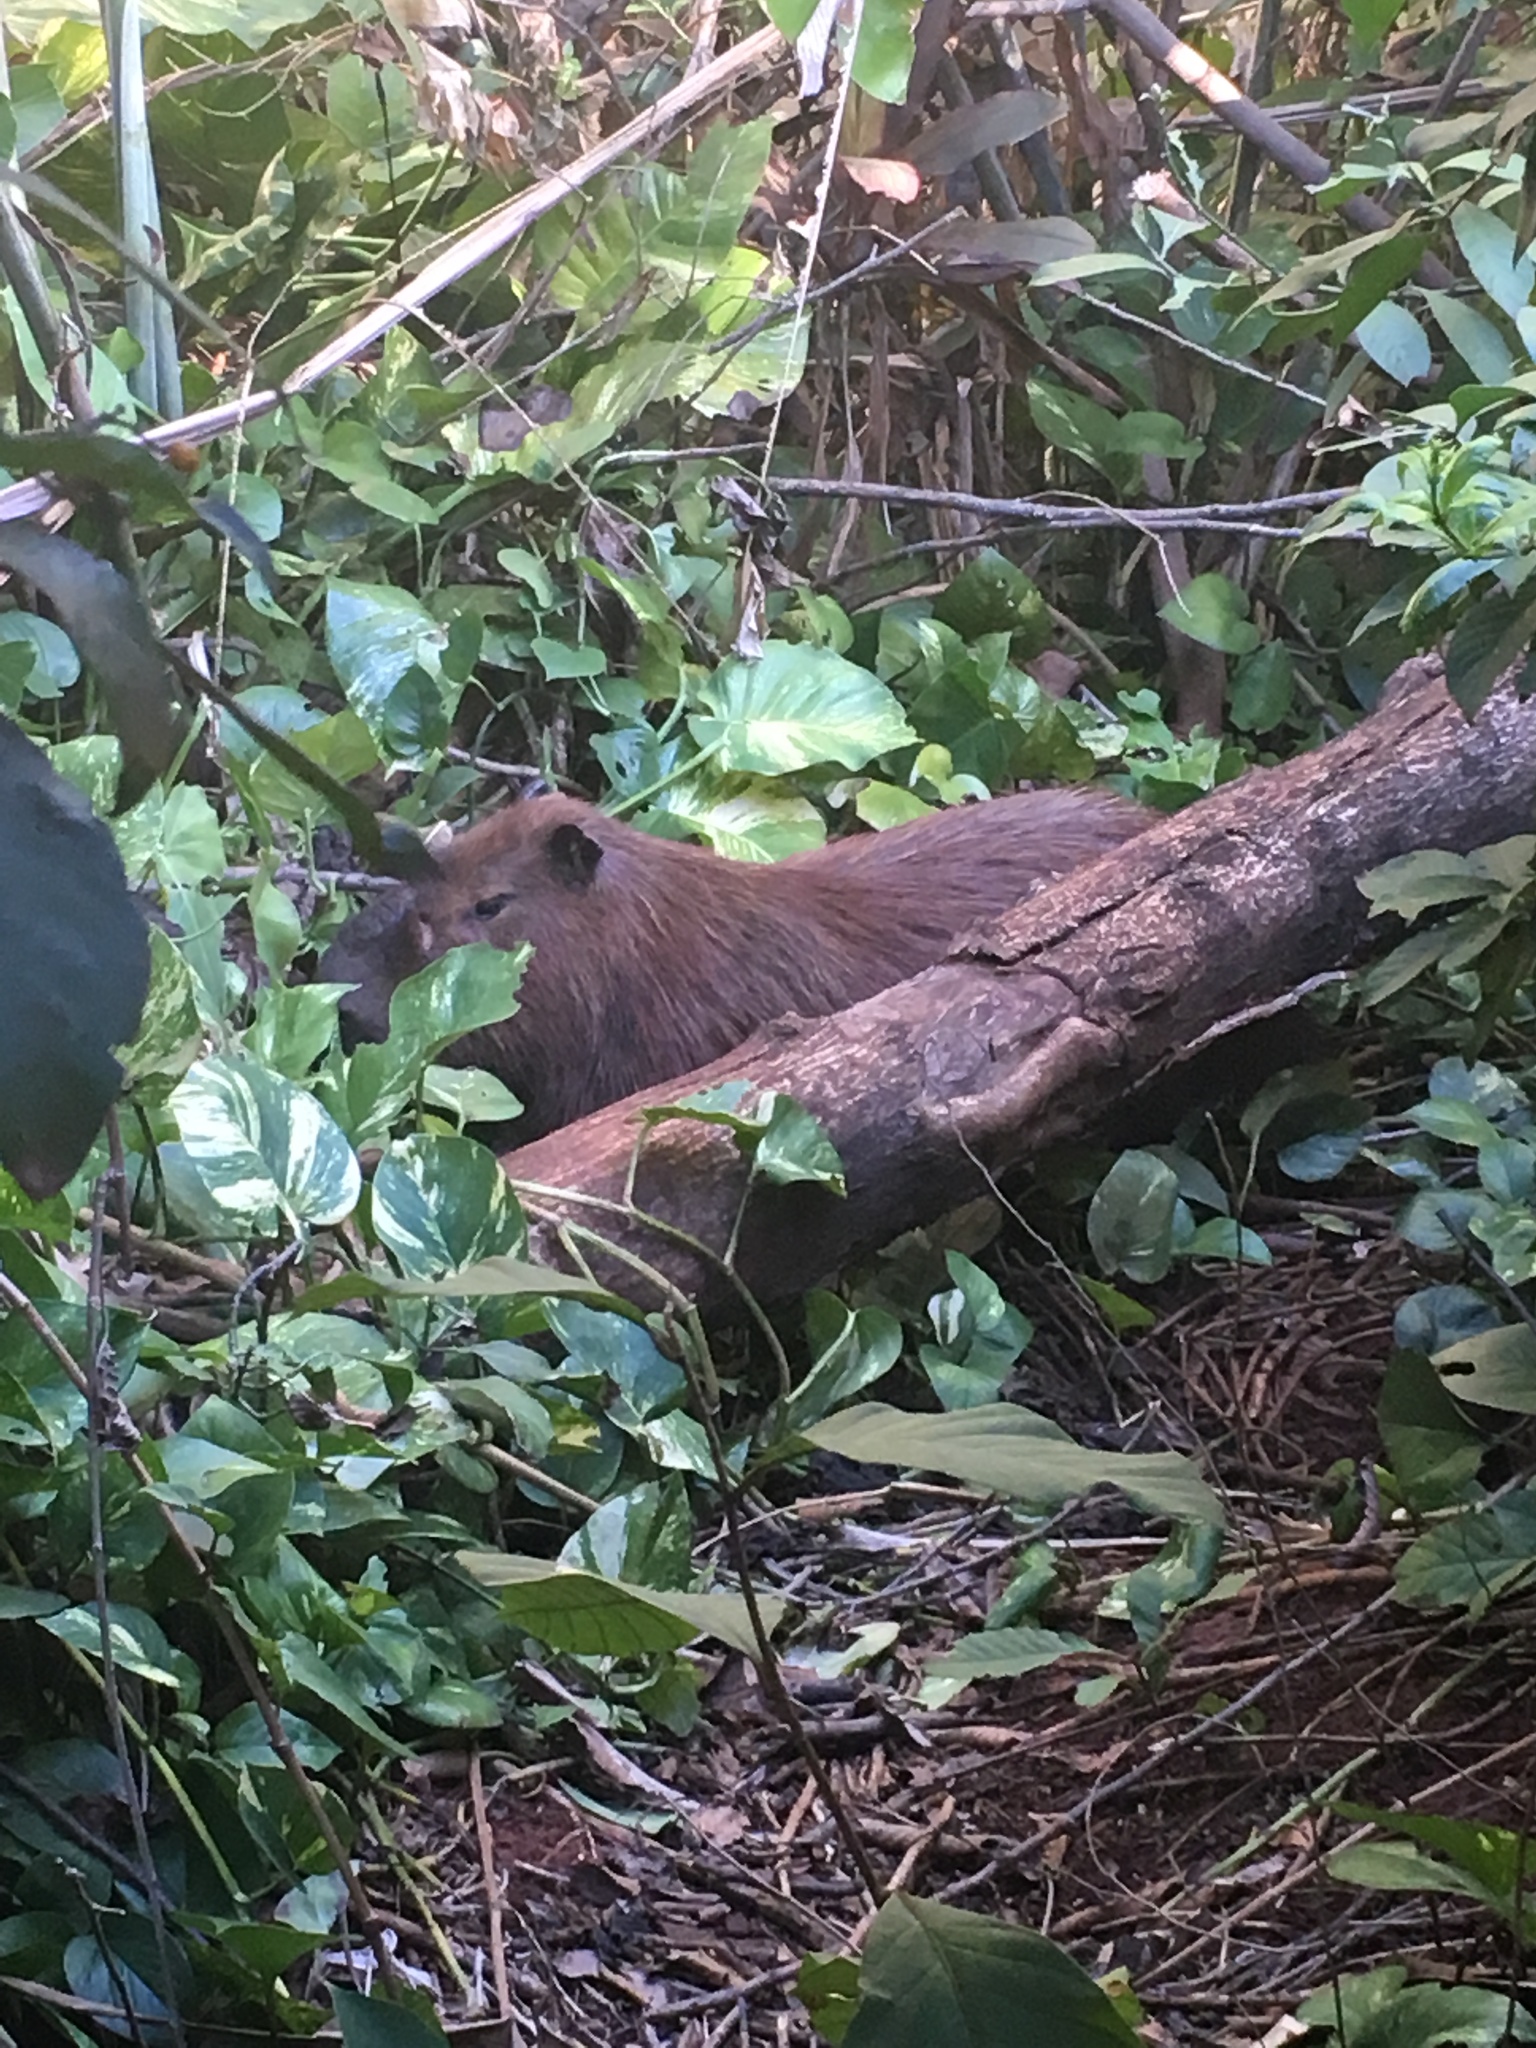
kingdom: Animalia
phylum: Chordata
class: Mammalia
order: Rodentia
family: Caviidae
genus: Hydrochoerus
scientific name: Hydrochoerus hydrochaeris
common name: Capybara
